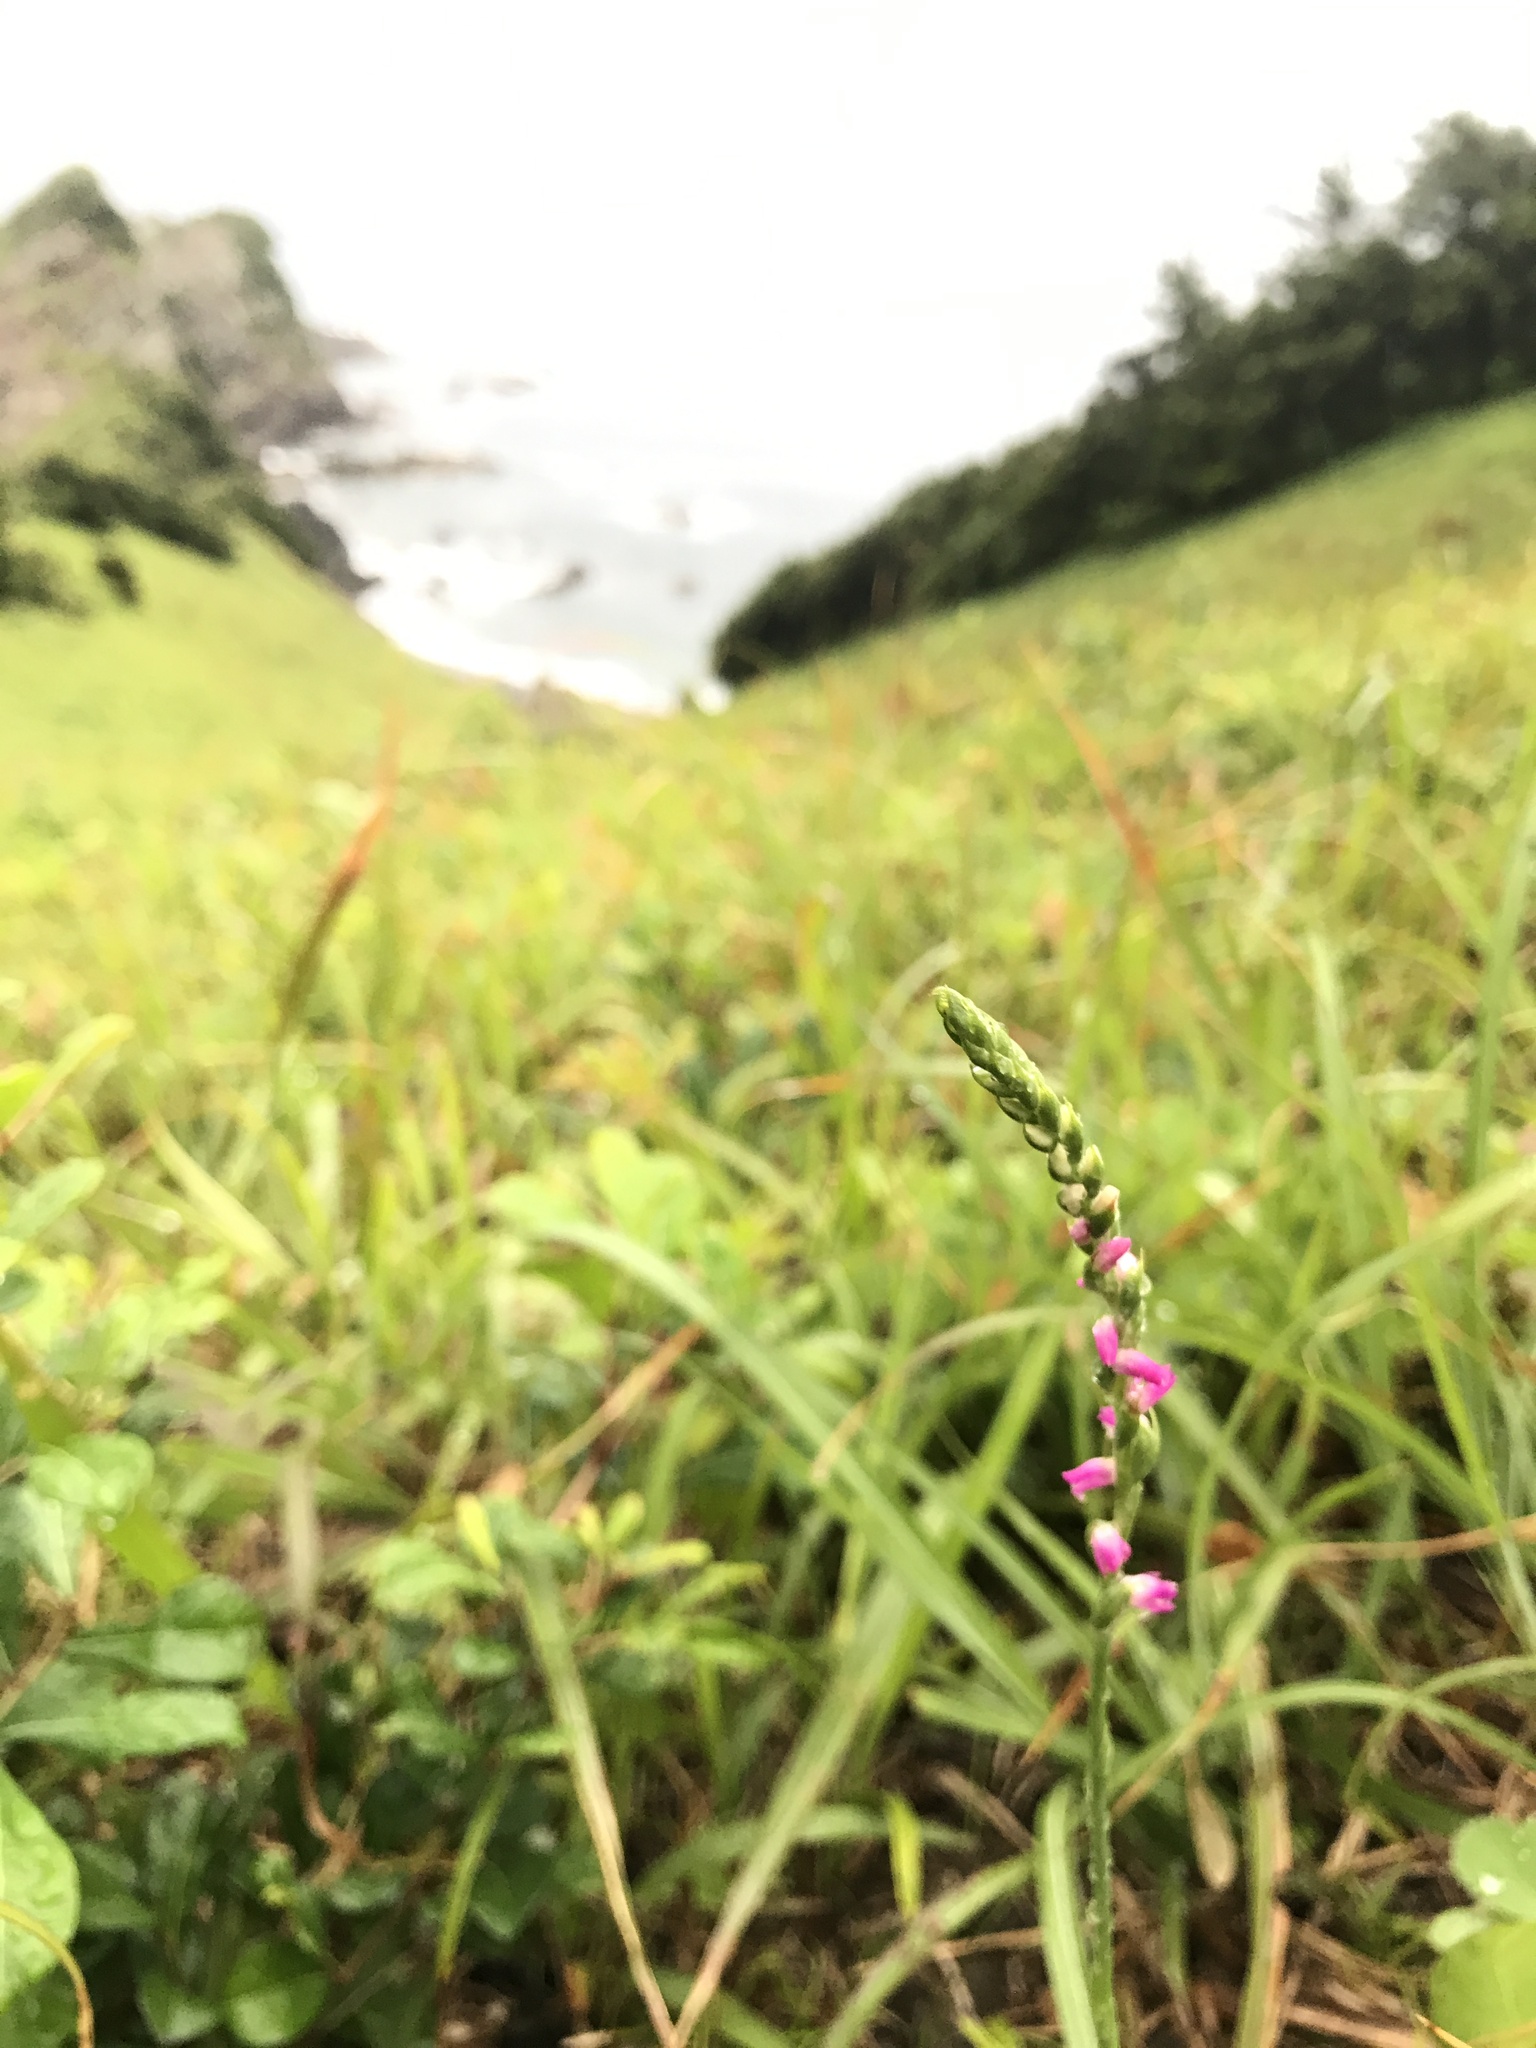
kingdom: Plantae
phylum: Tracheophyta
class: Liliopsida
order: Asparagales
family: Orchidaceae
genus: Spiranthes
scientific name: Spiranthes australis
